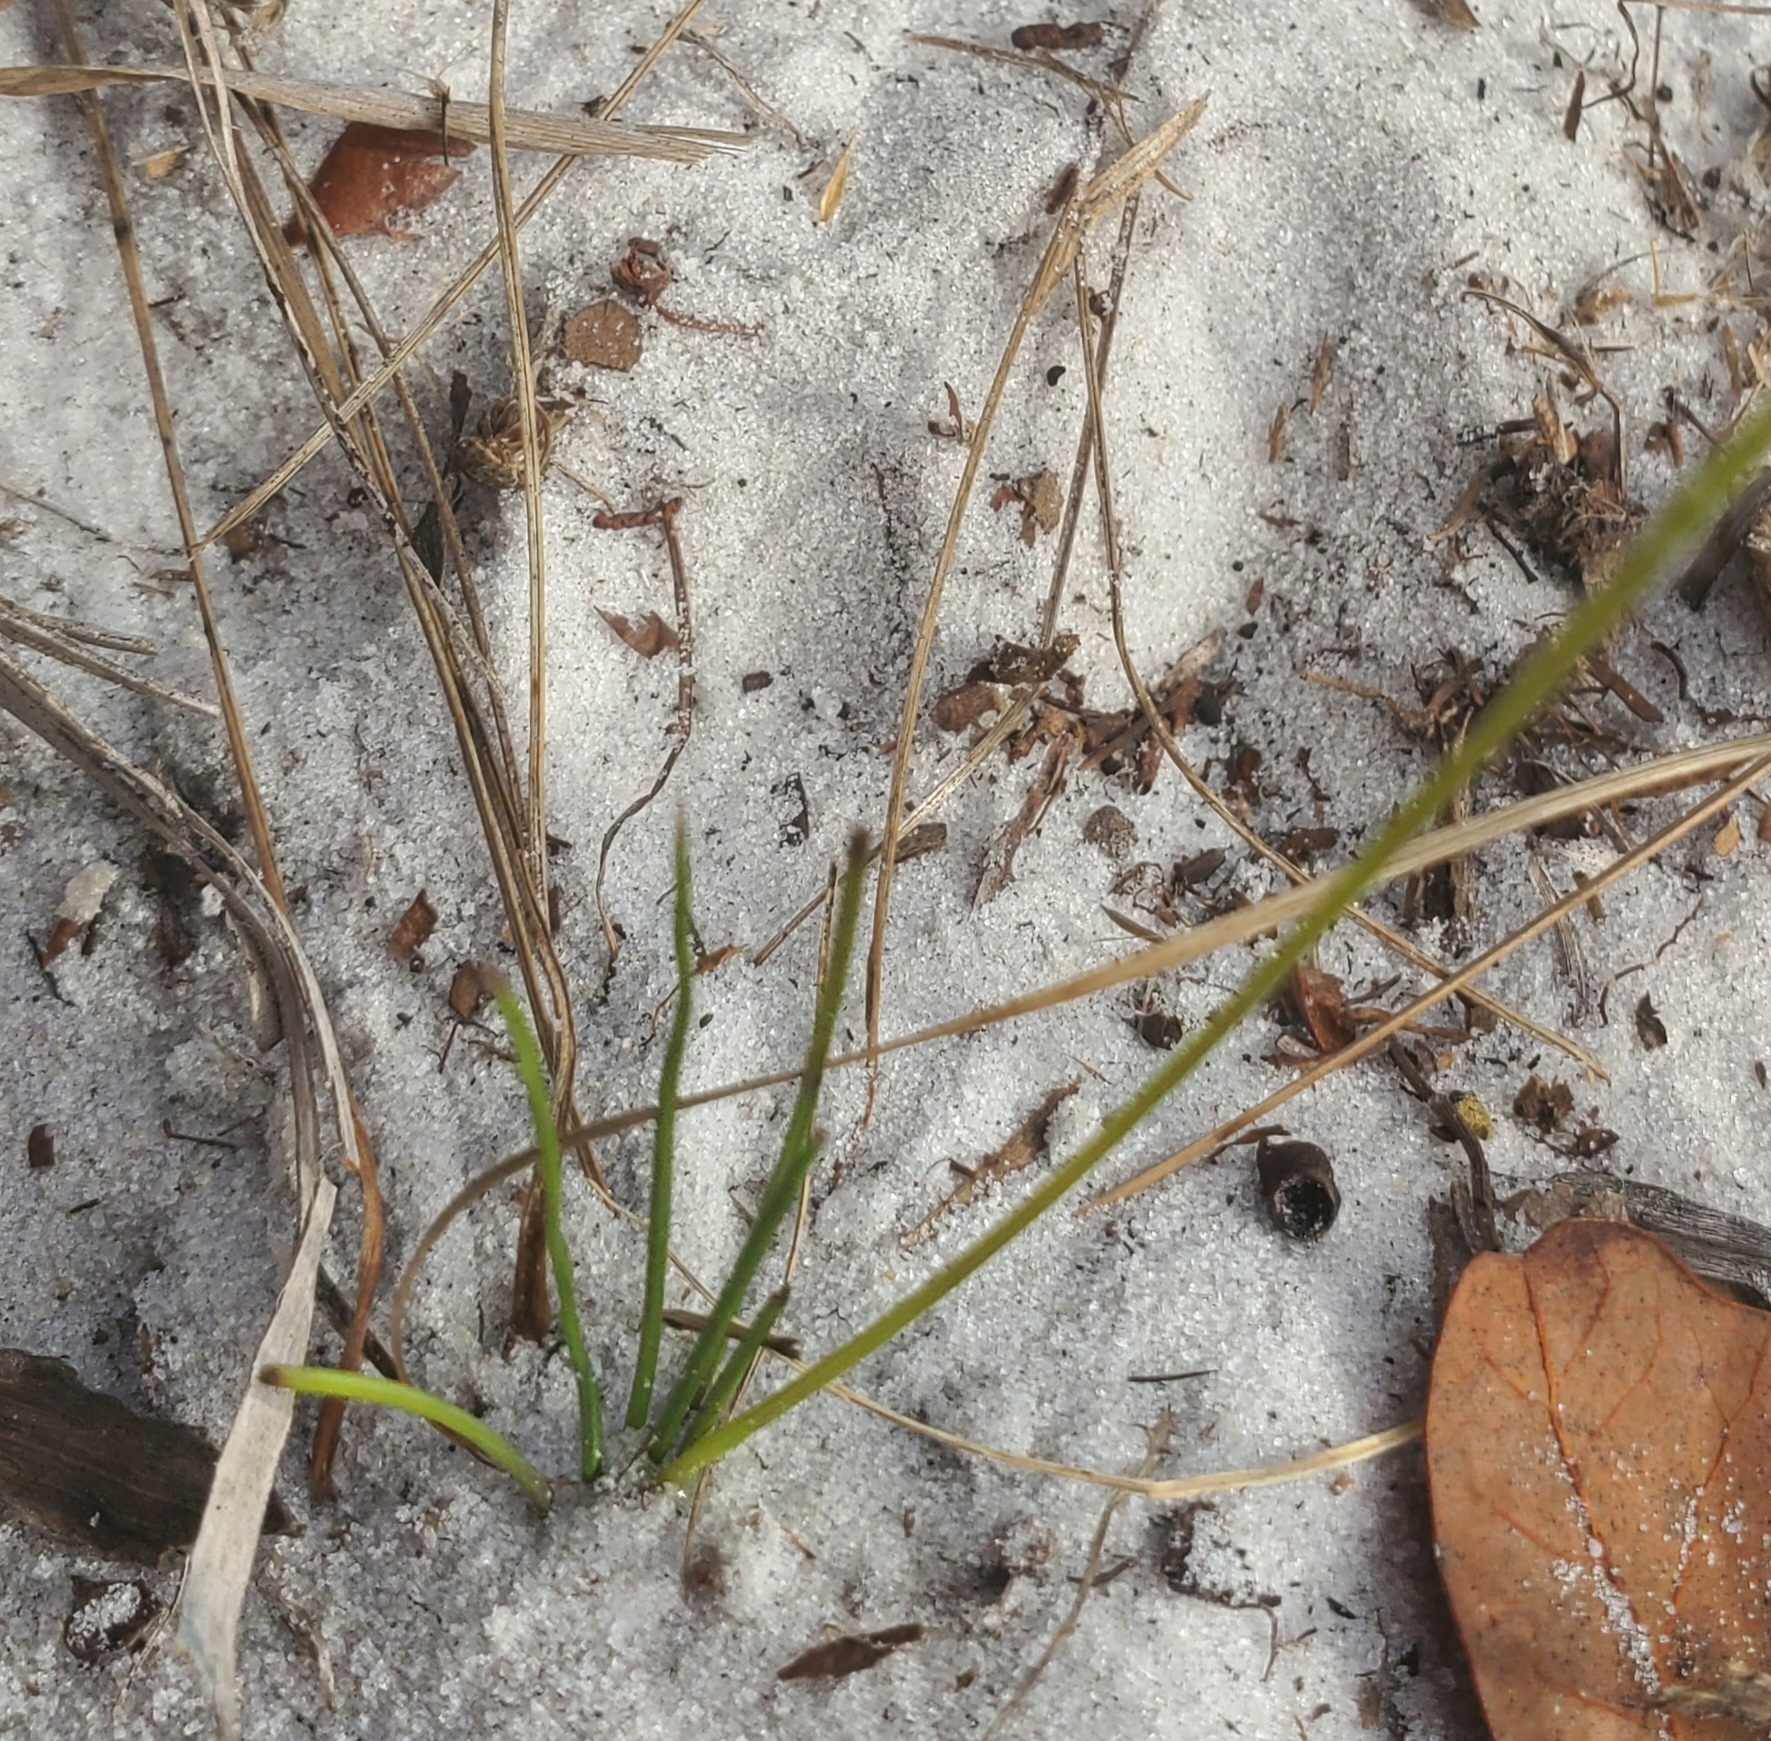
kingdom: Plantae
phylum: Tracheophyta
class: Liliopsida
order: Asparagales
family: Hypoxidaceae
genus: Hypoxis
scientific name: Hypoxis juncea
